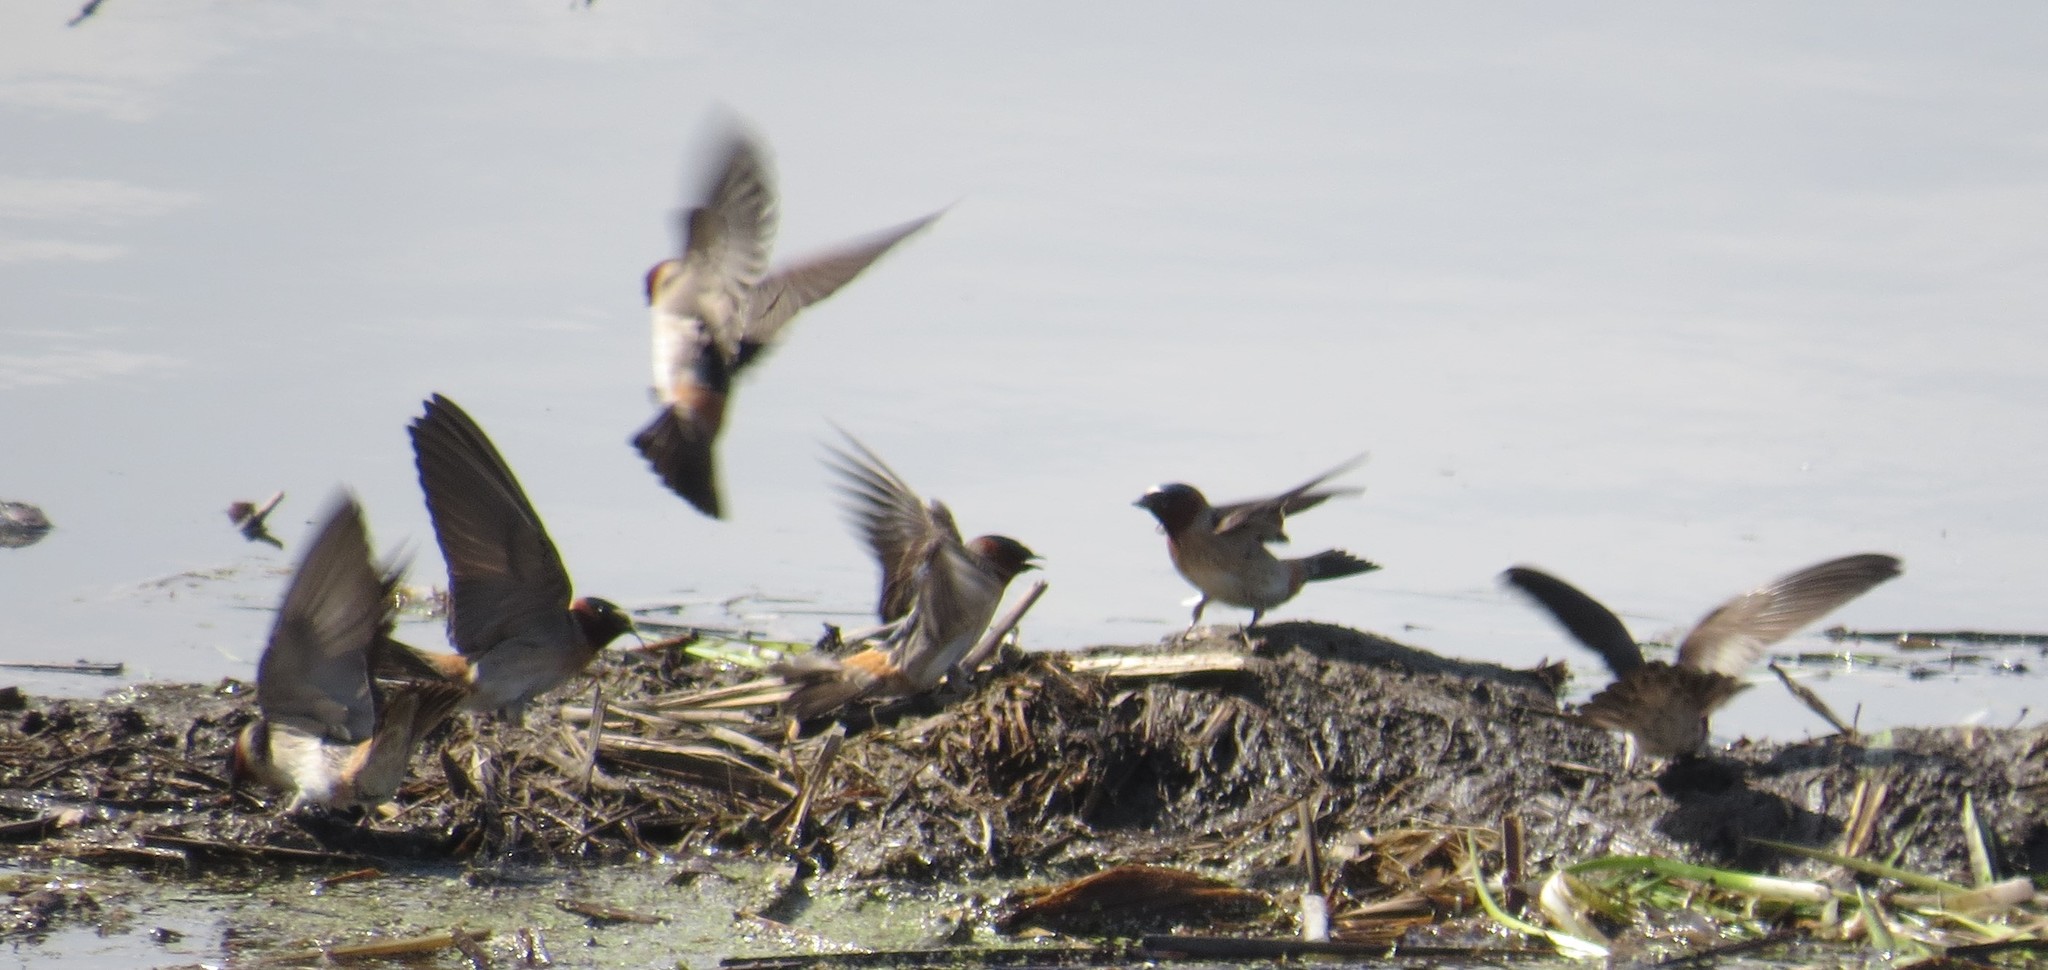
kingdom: Animalia
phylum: Chordata
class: Aves
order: Passeriformes
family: Hirundinidae
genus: Petrochelidon
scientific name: Petrochelidon pyrrhonota
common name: American cliff swallow
